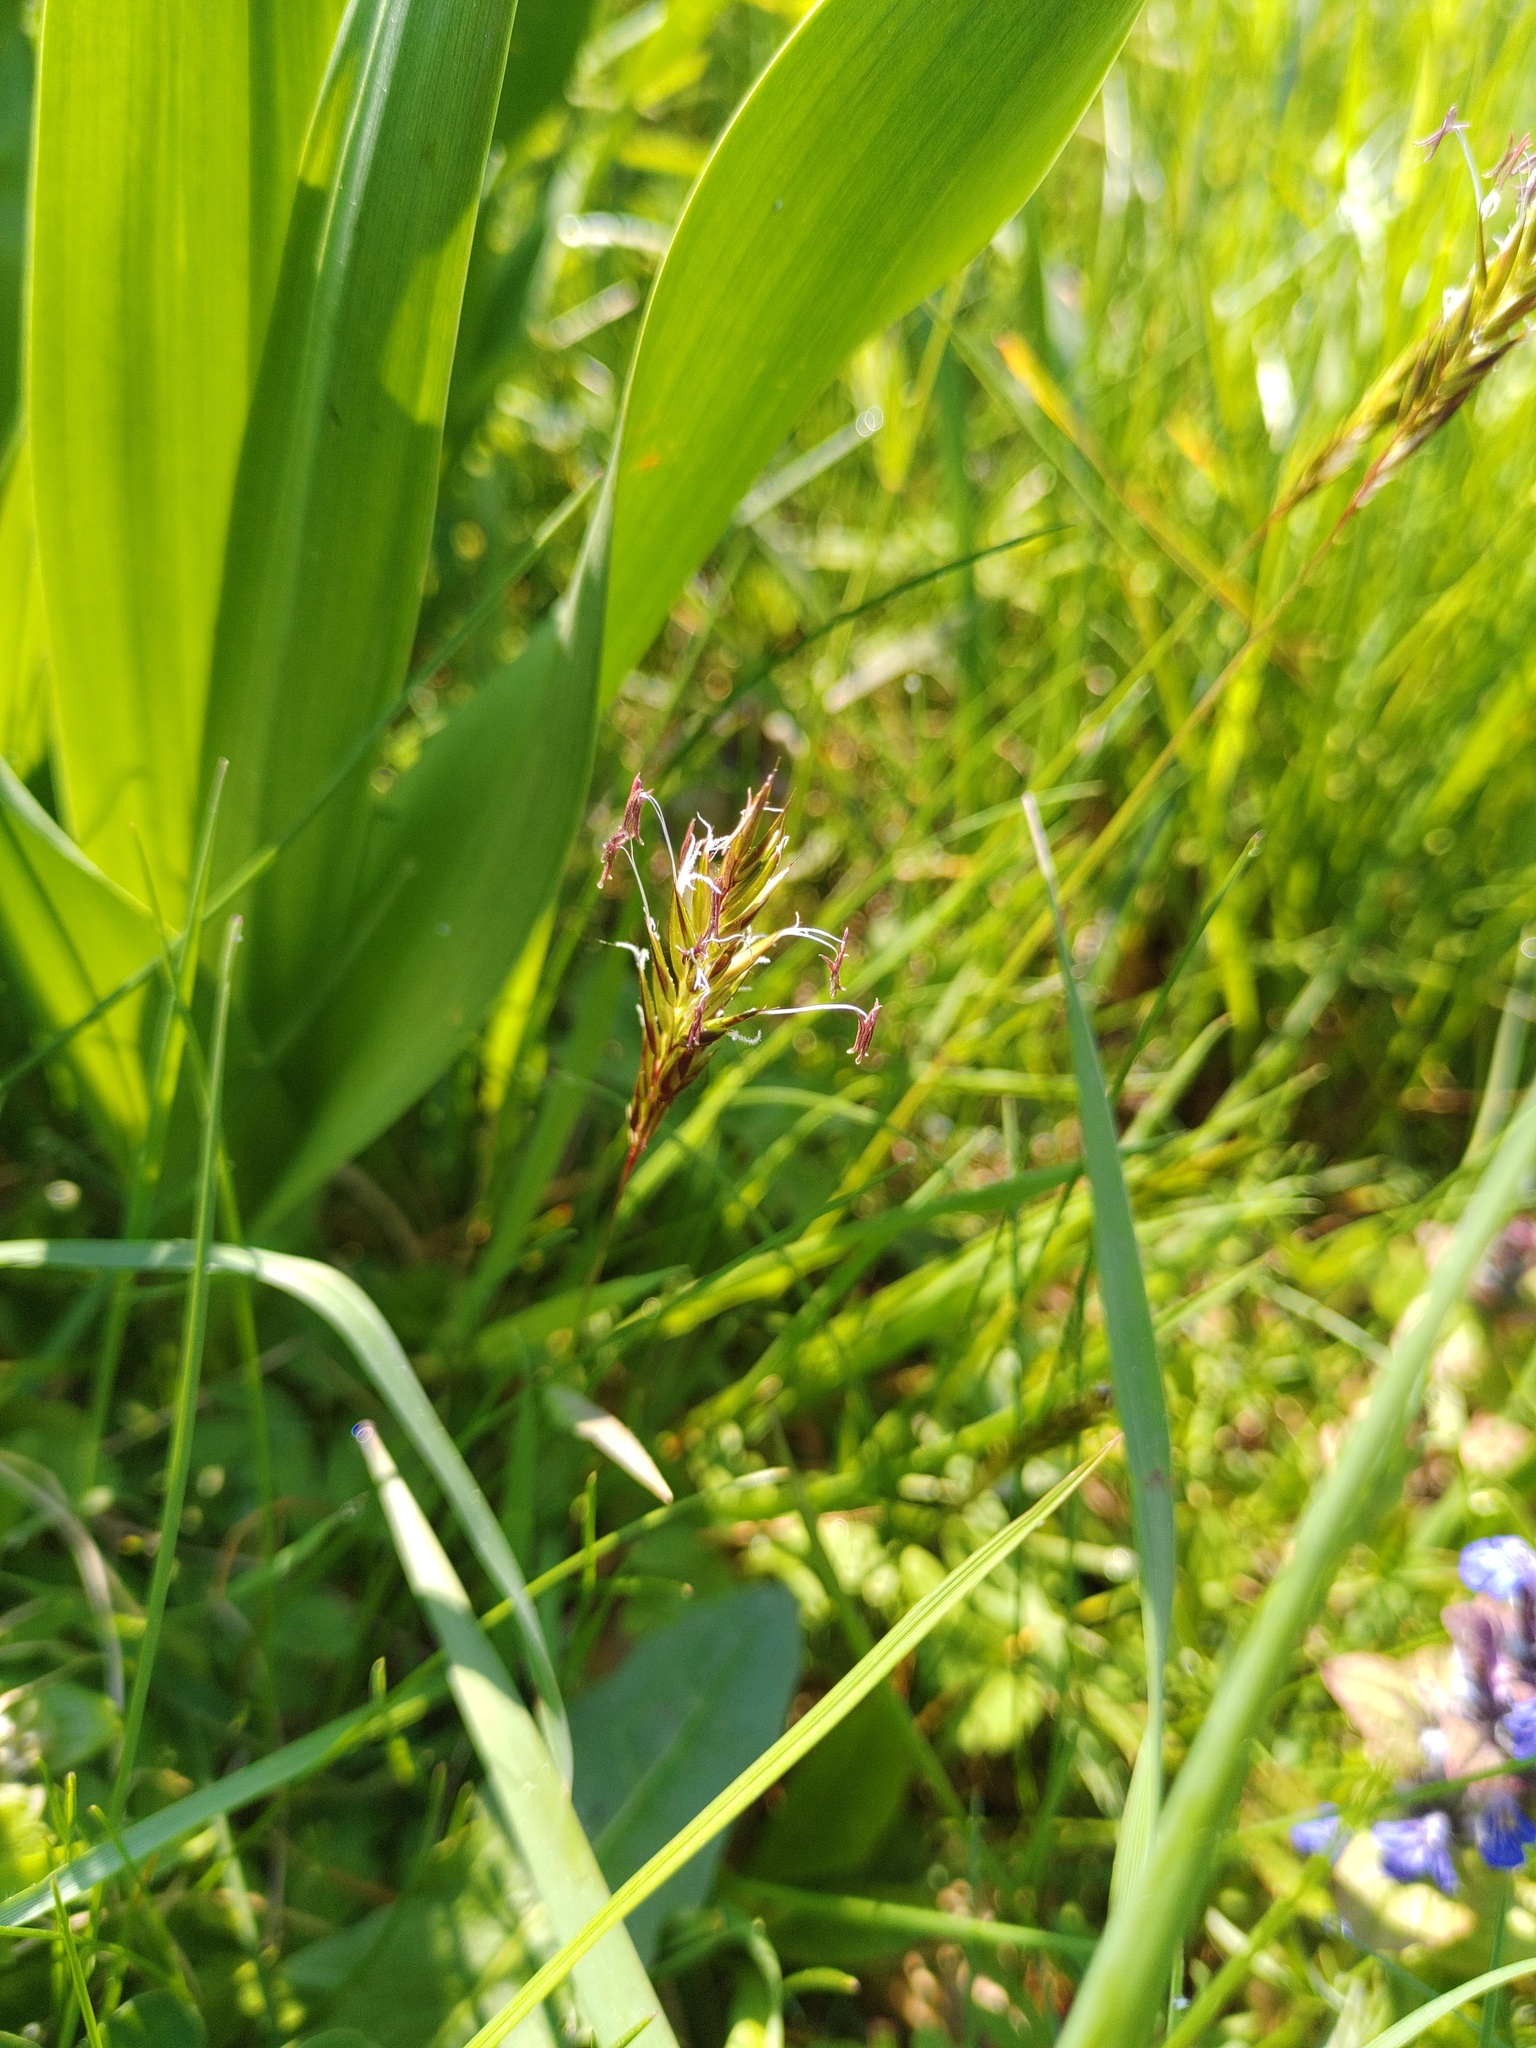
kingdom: Plantae
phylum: Tracheophyta
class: Liliopsida
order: Poales
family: Poaceae
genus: Anthoxanthum
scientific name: Anthoxanthum odoratum
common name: Sweet vernalgrass
